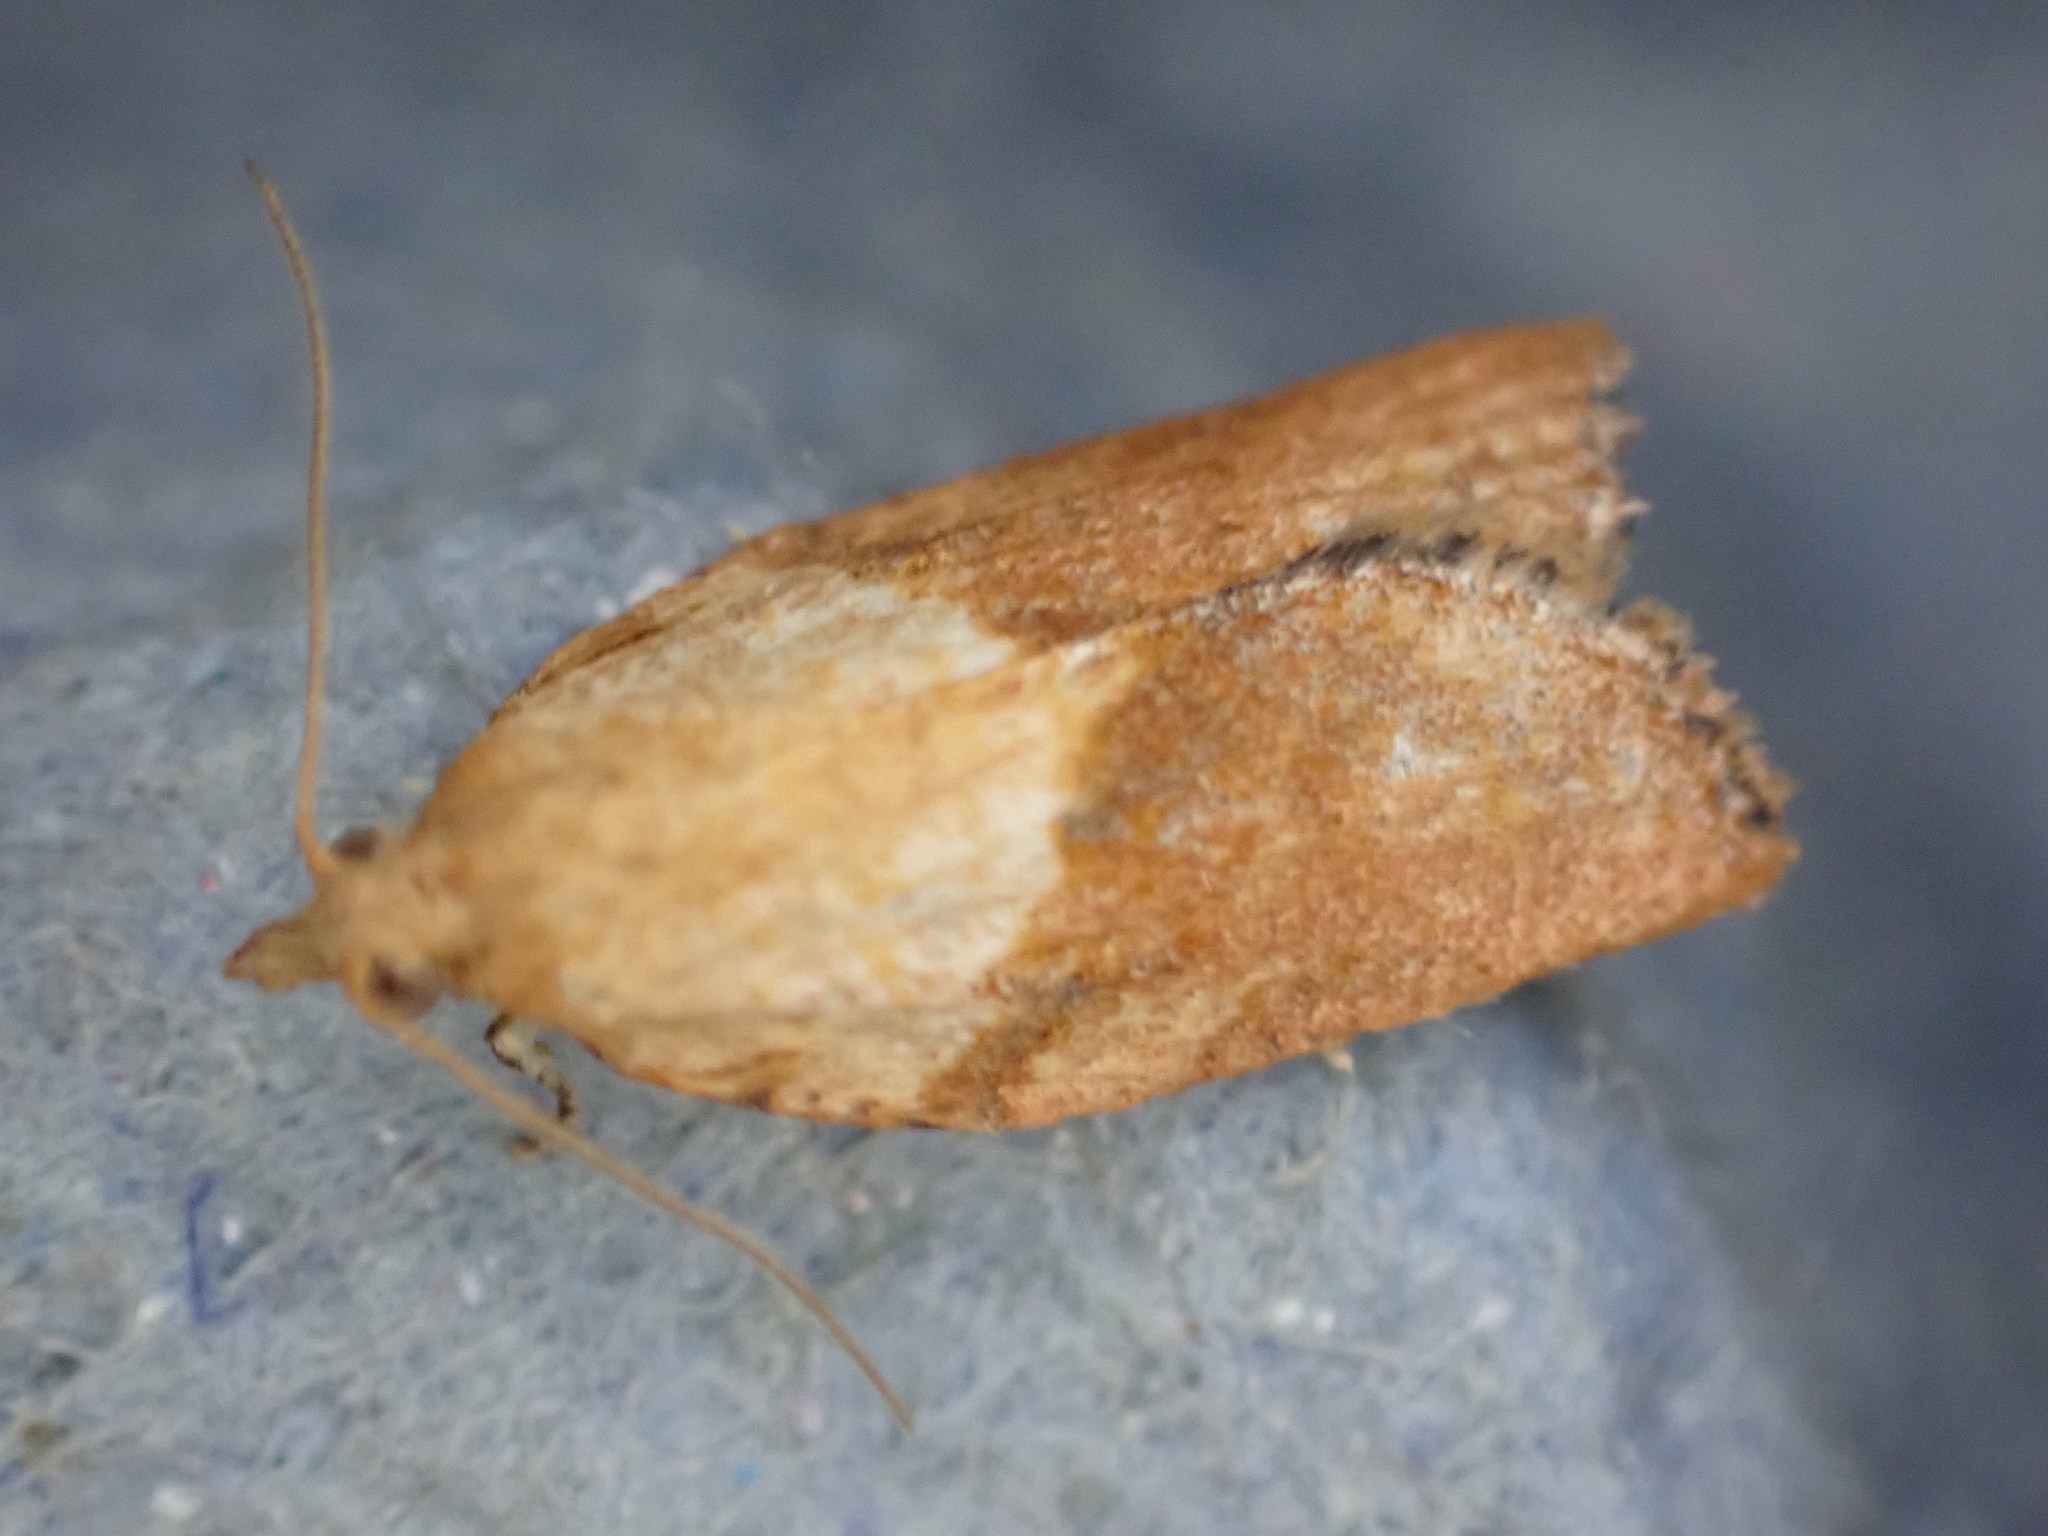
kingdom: Animalia
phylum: Arthropoda
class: Insecta
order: Lepidoptera
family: Tortricidae
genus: Epiphyas
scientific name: Epiphyas postvittana
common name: Light brown apple moth
